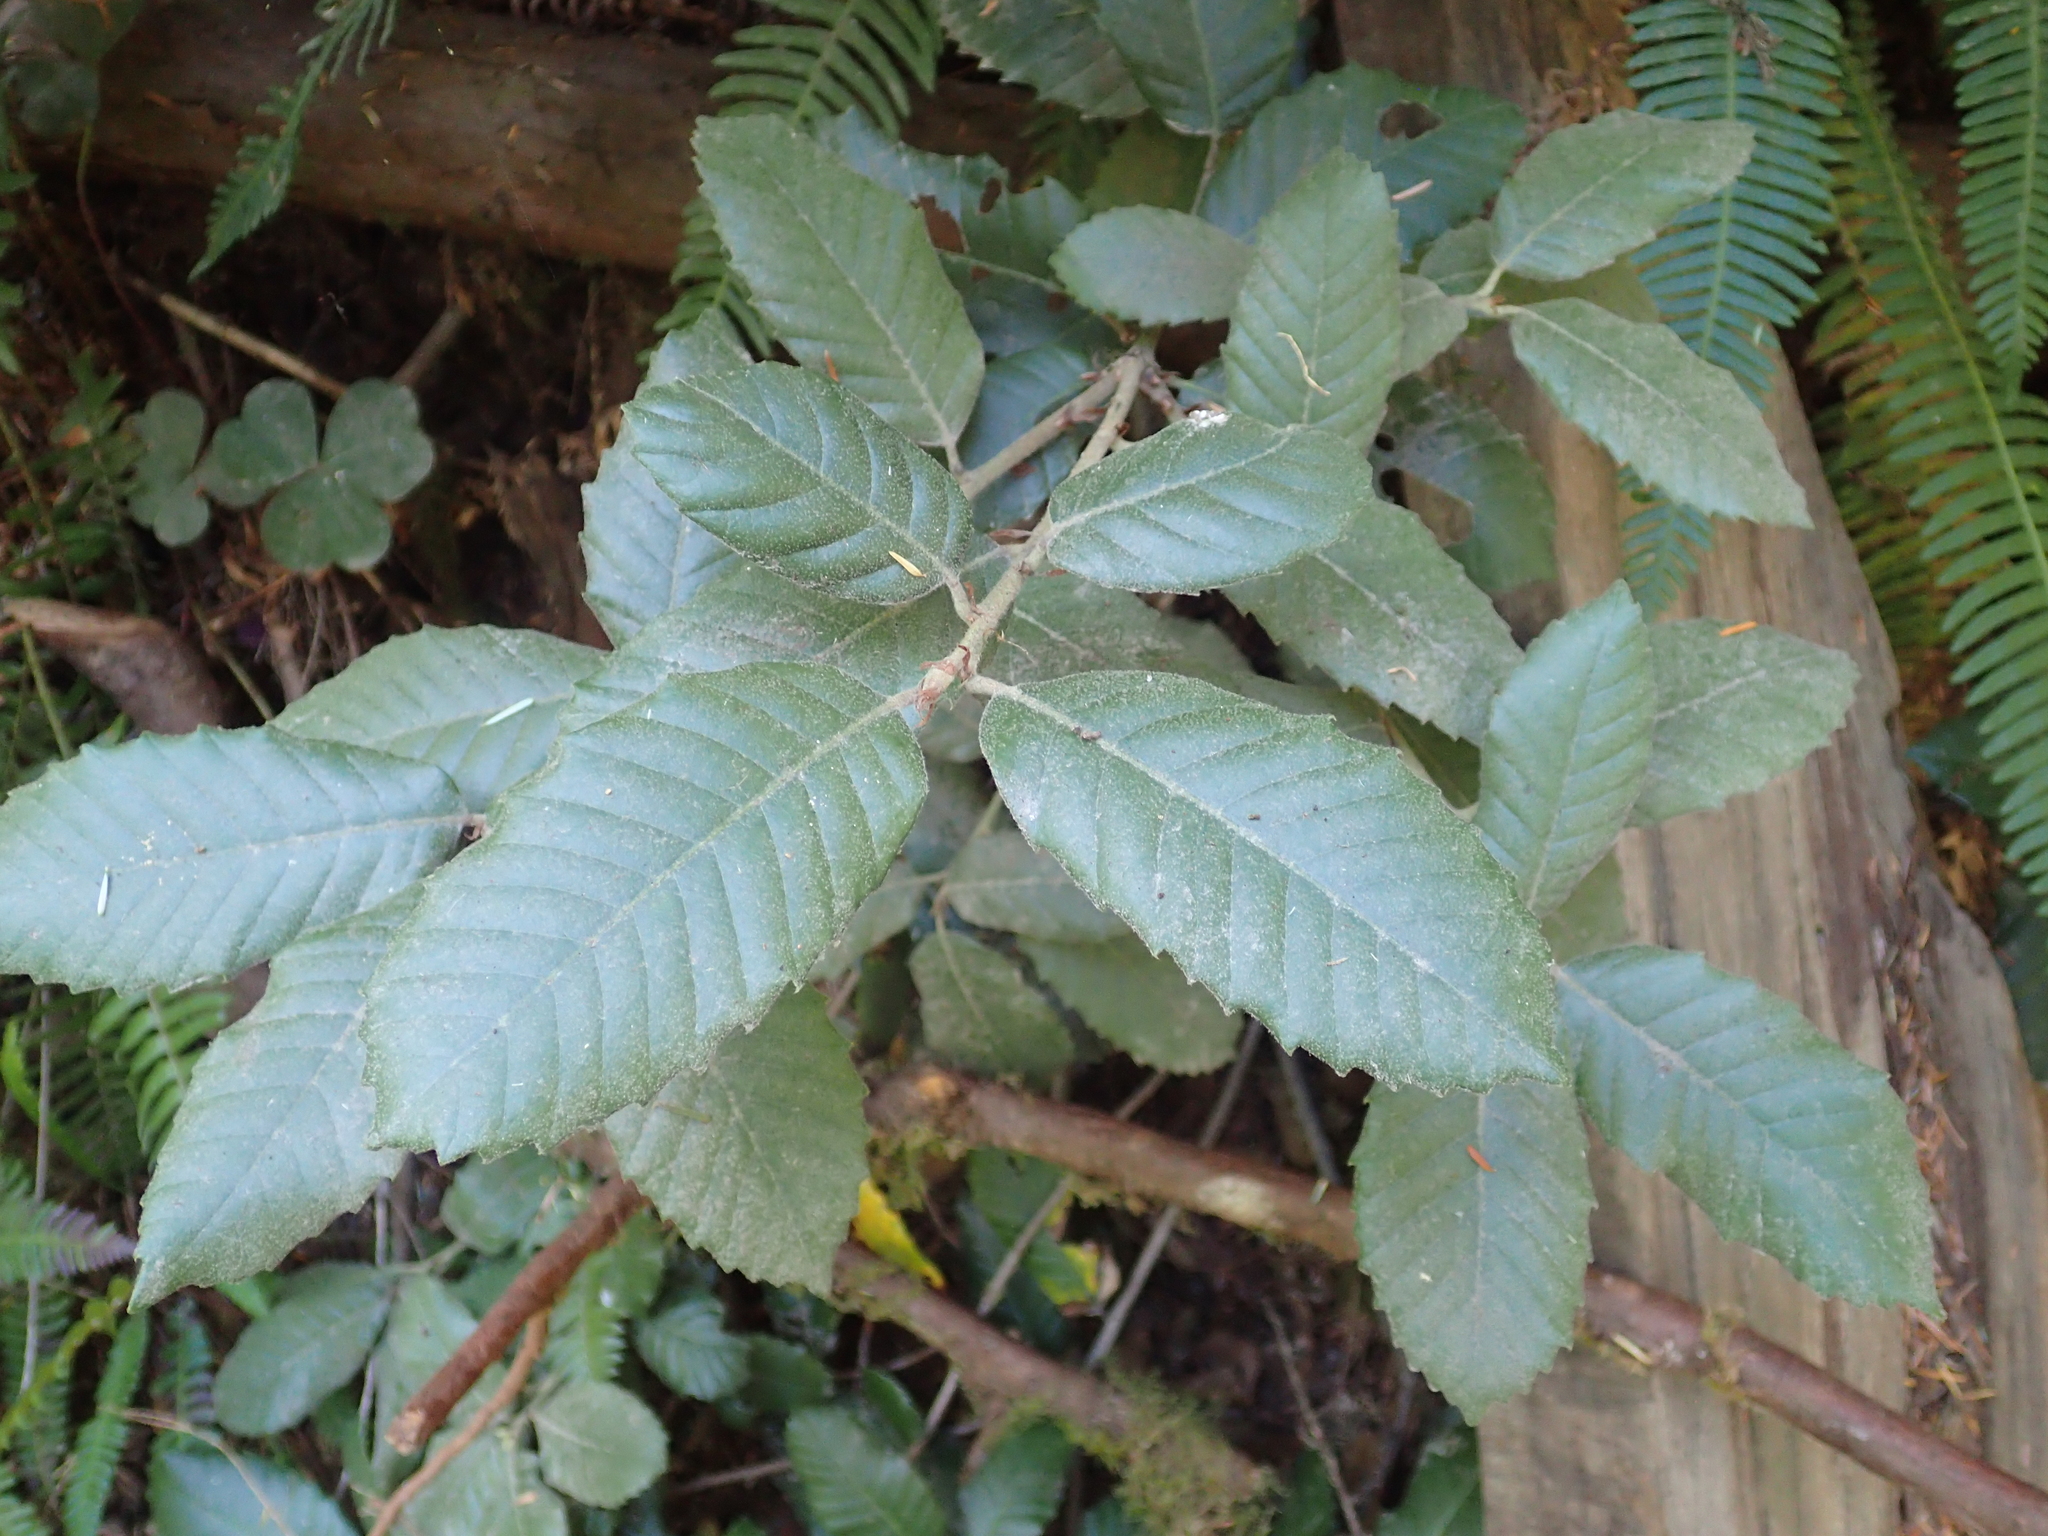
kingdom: Plantae
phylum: Tracheophyta
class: Magnoliopsida
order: Fagales
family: Fagaceae
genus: Notholithocarpus
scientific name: Notholithocarpus densiflorus
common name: Tan bark oak
